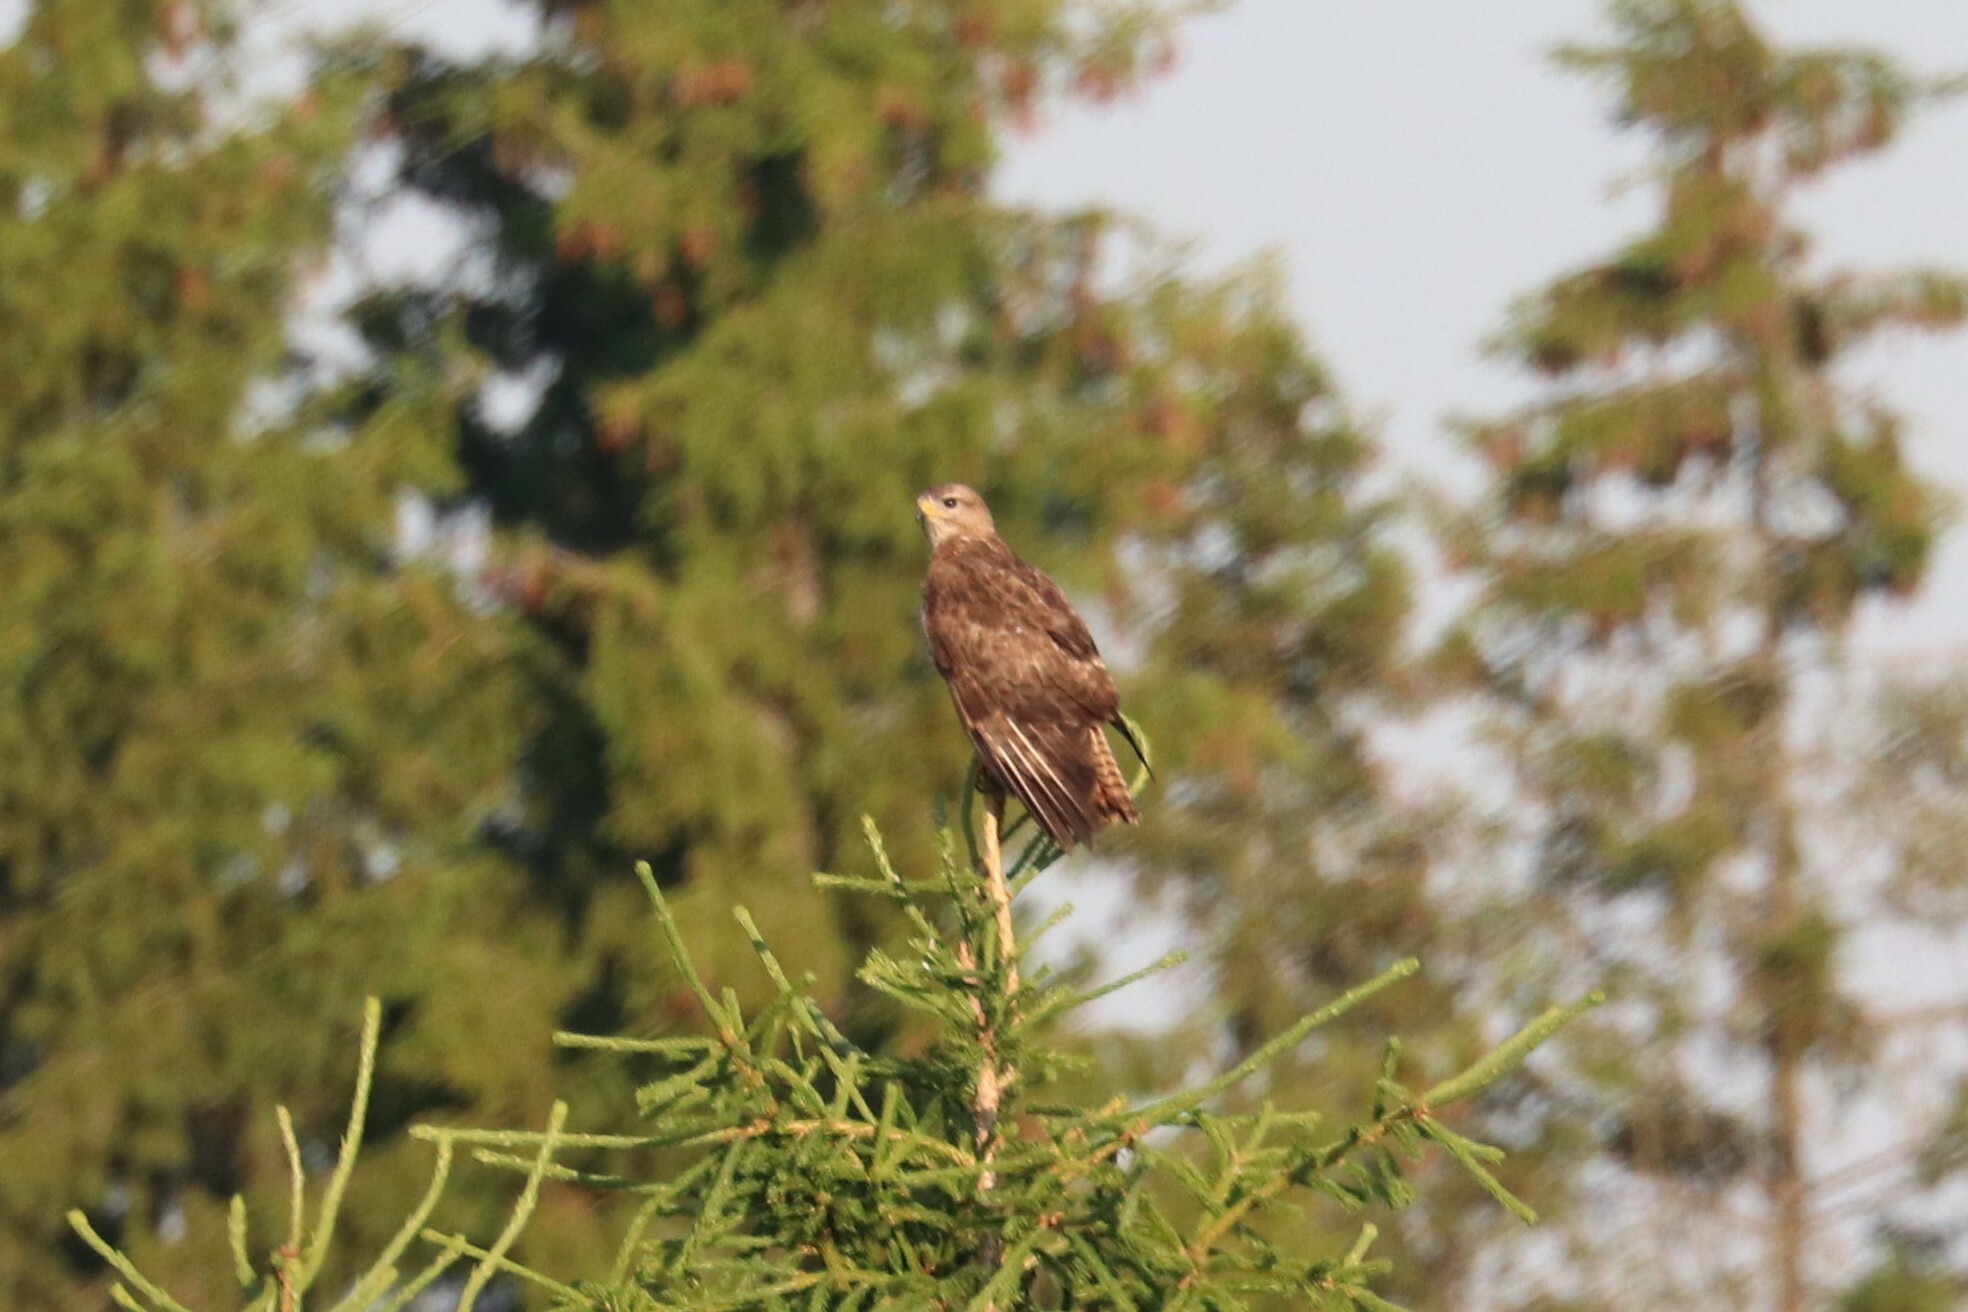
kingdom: Animalia
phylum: Chordata
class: Aves
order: Accipitriformes
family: Accipitridae
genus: Buteo
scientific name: Buteo buteo
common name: Common buzzard
